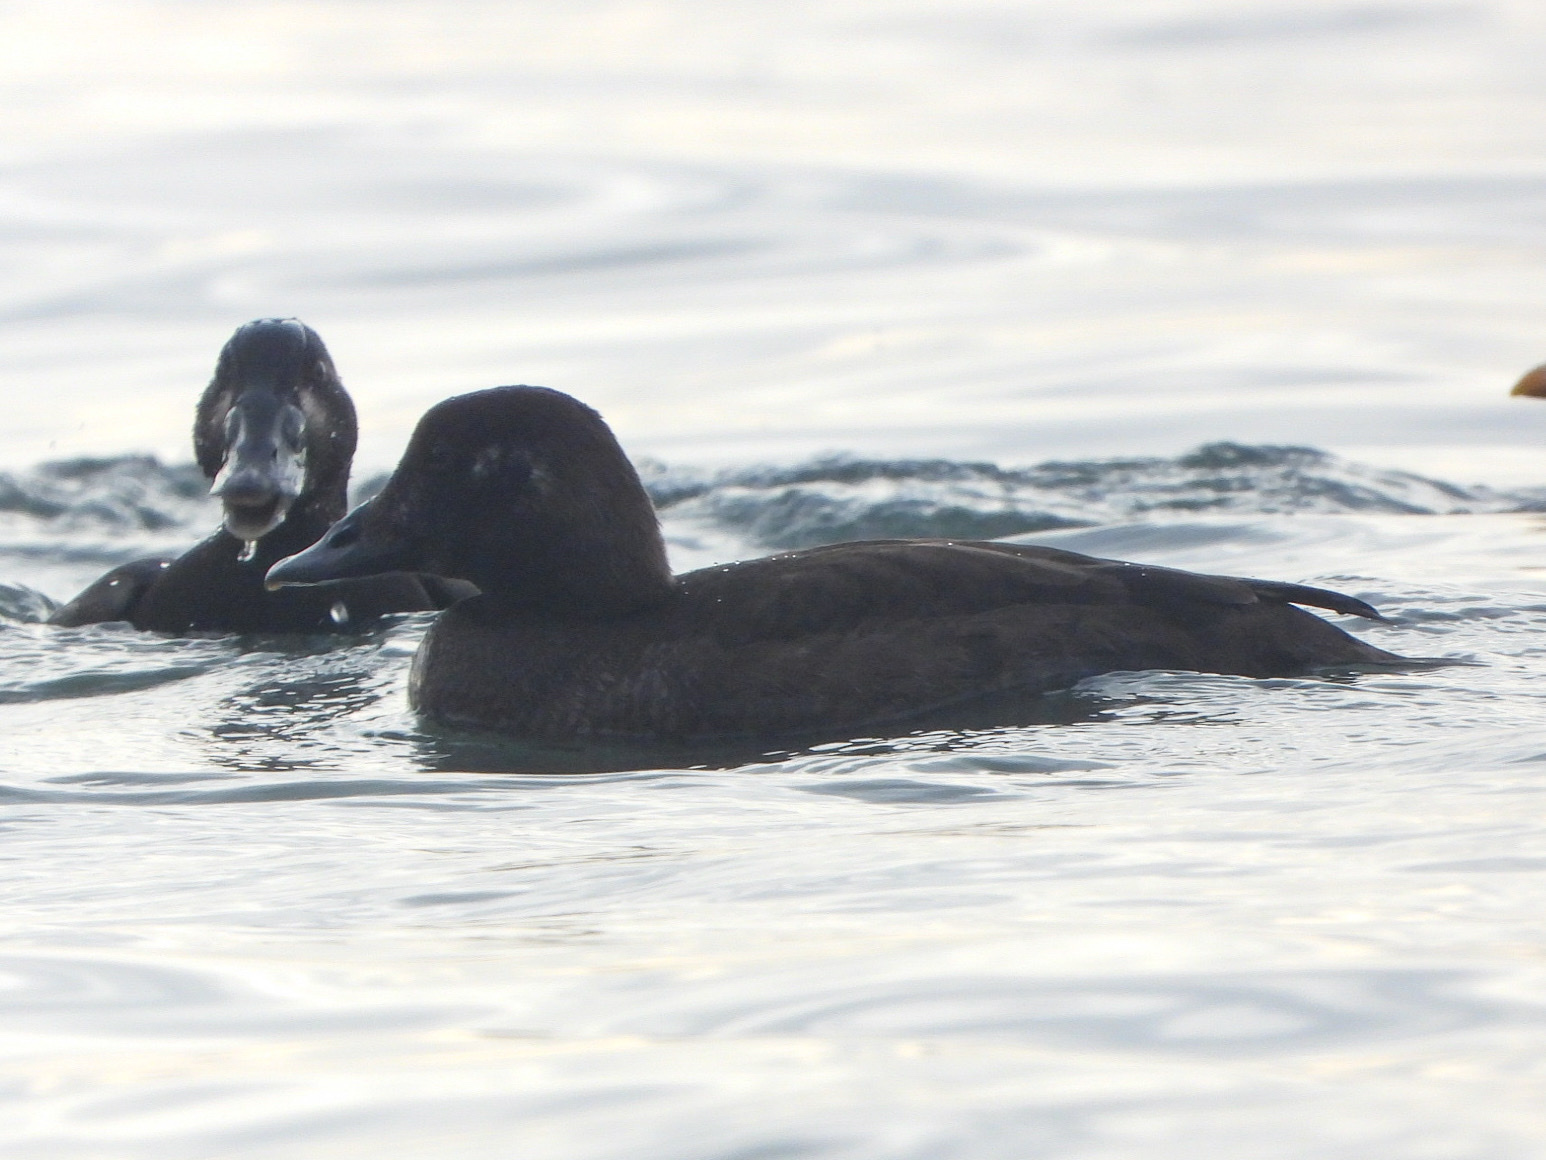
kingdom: Animalia
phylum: Chordata
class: Aves
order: Anseriformes
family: Anatidae
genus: Melanitta
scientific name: Melanitta deglandi
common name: White-winged scoter
